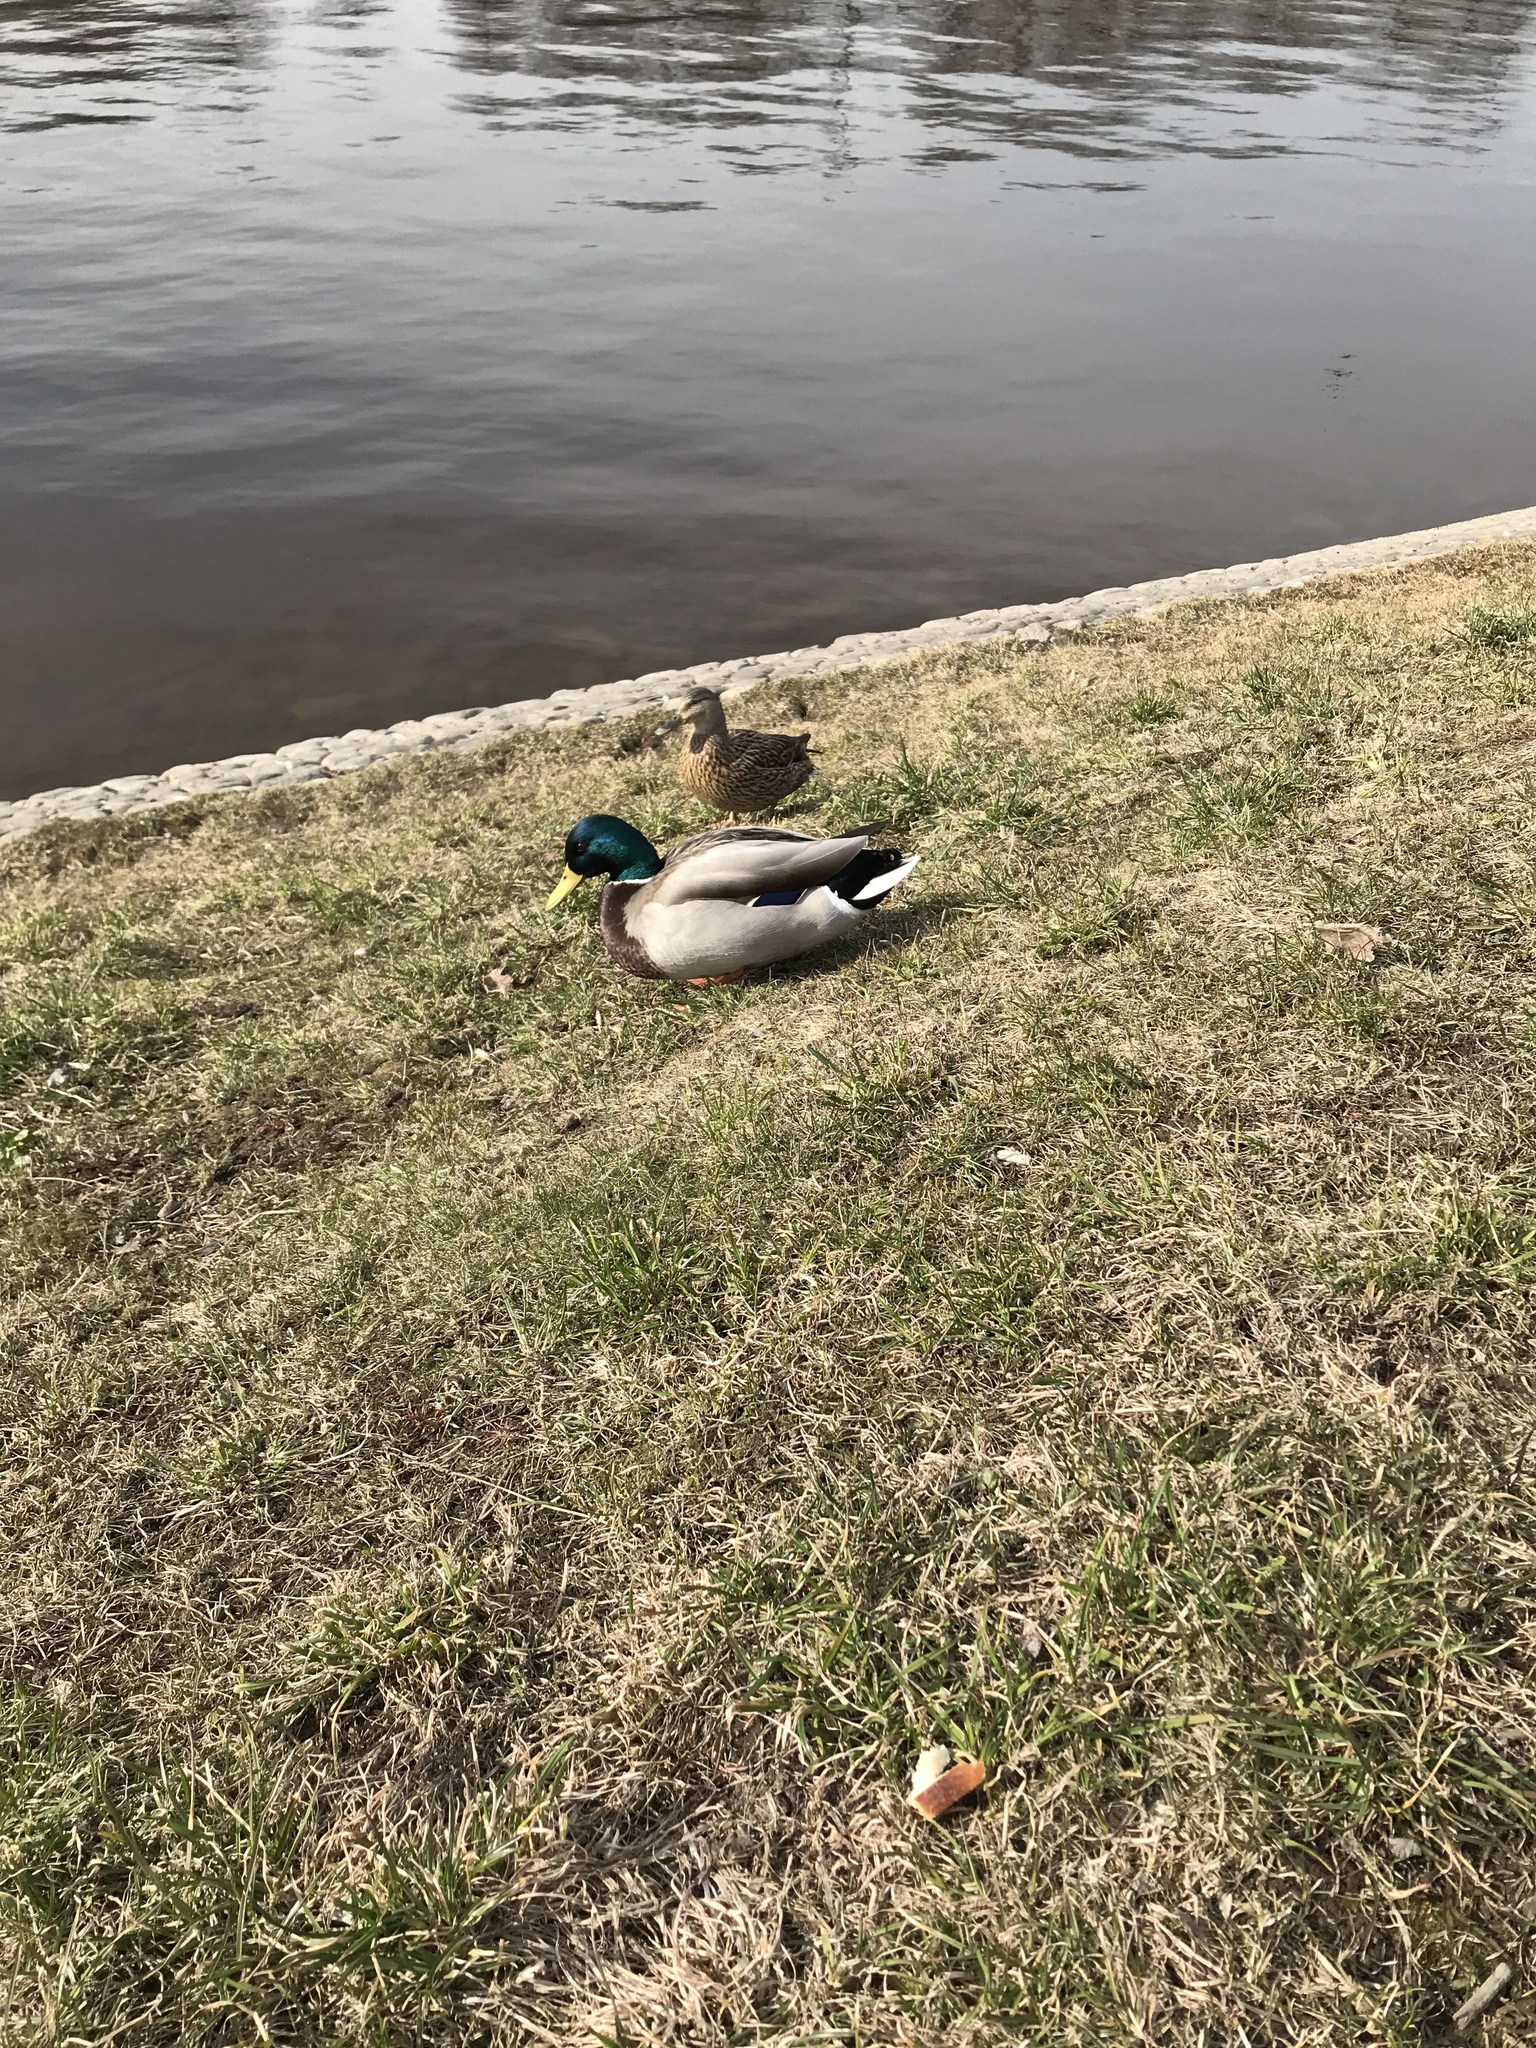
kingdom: Animalia
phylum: Chordata
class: Aves
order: Anseriformes
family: Anatidae
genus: Anas
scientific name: Anas platyrhynchos
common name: Mallard
